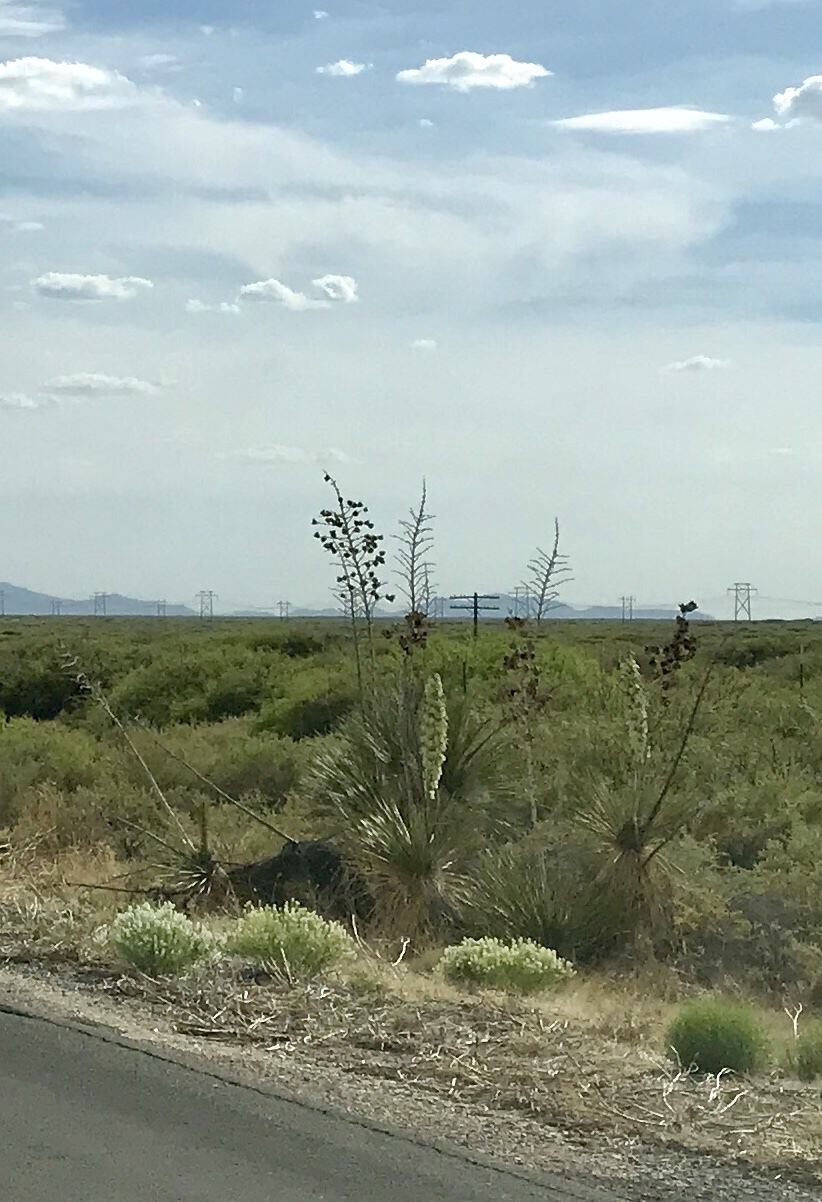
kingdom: Plantae
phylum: Tracheophyta
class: Liliopsida
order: Asparagales
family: Asparagaceae
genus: Yucca
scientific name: Yucca elata
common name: Palmella
